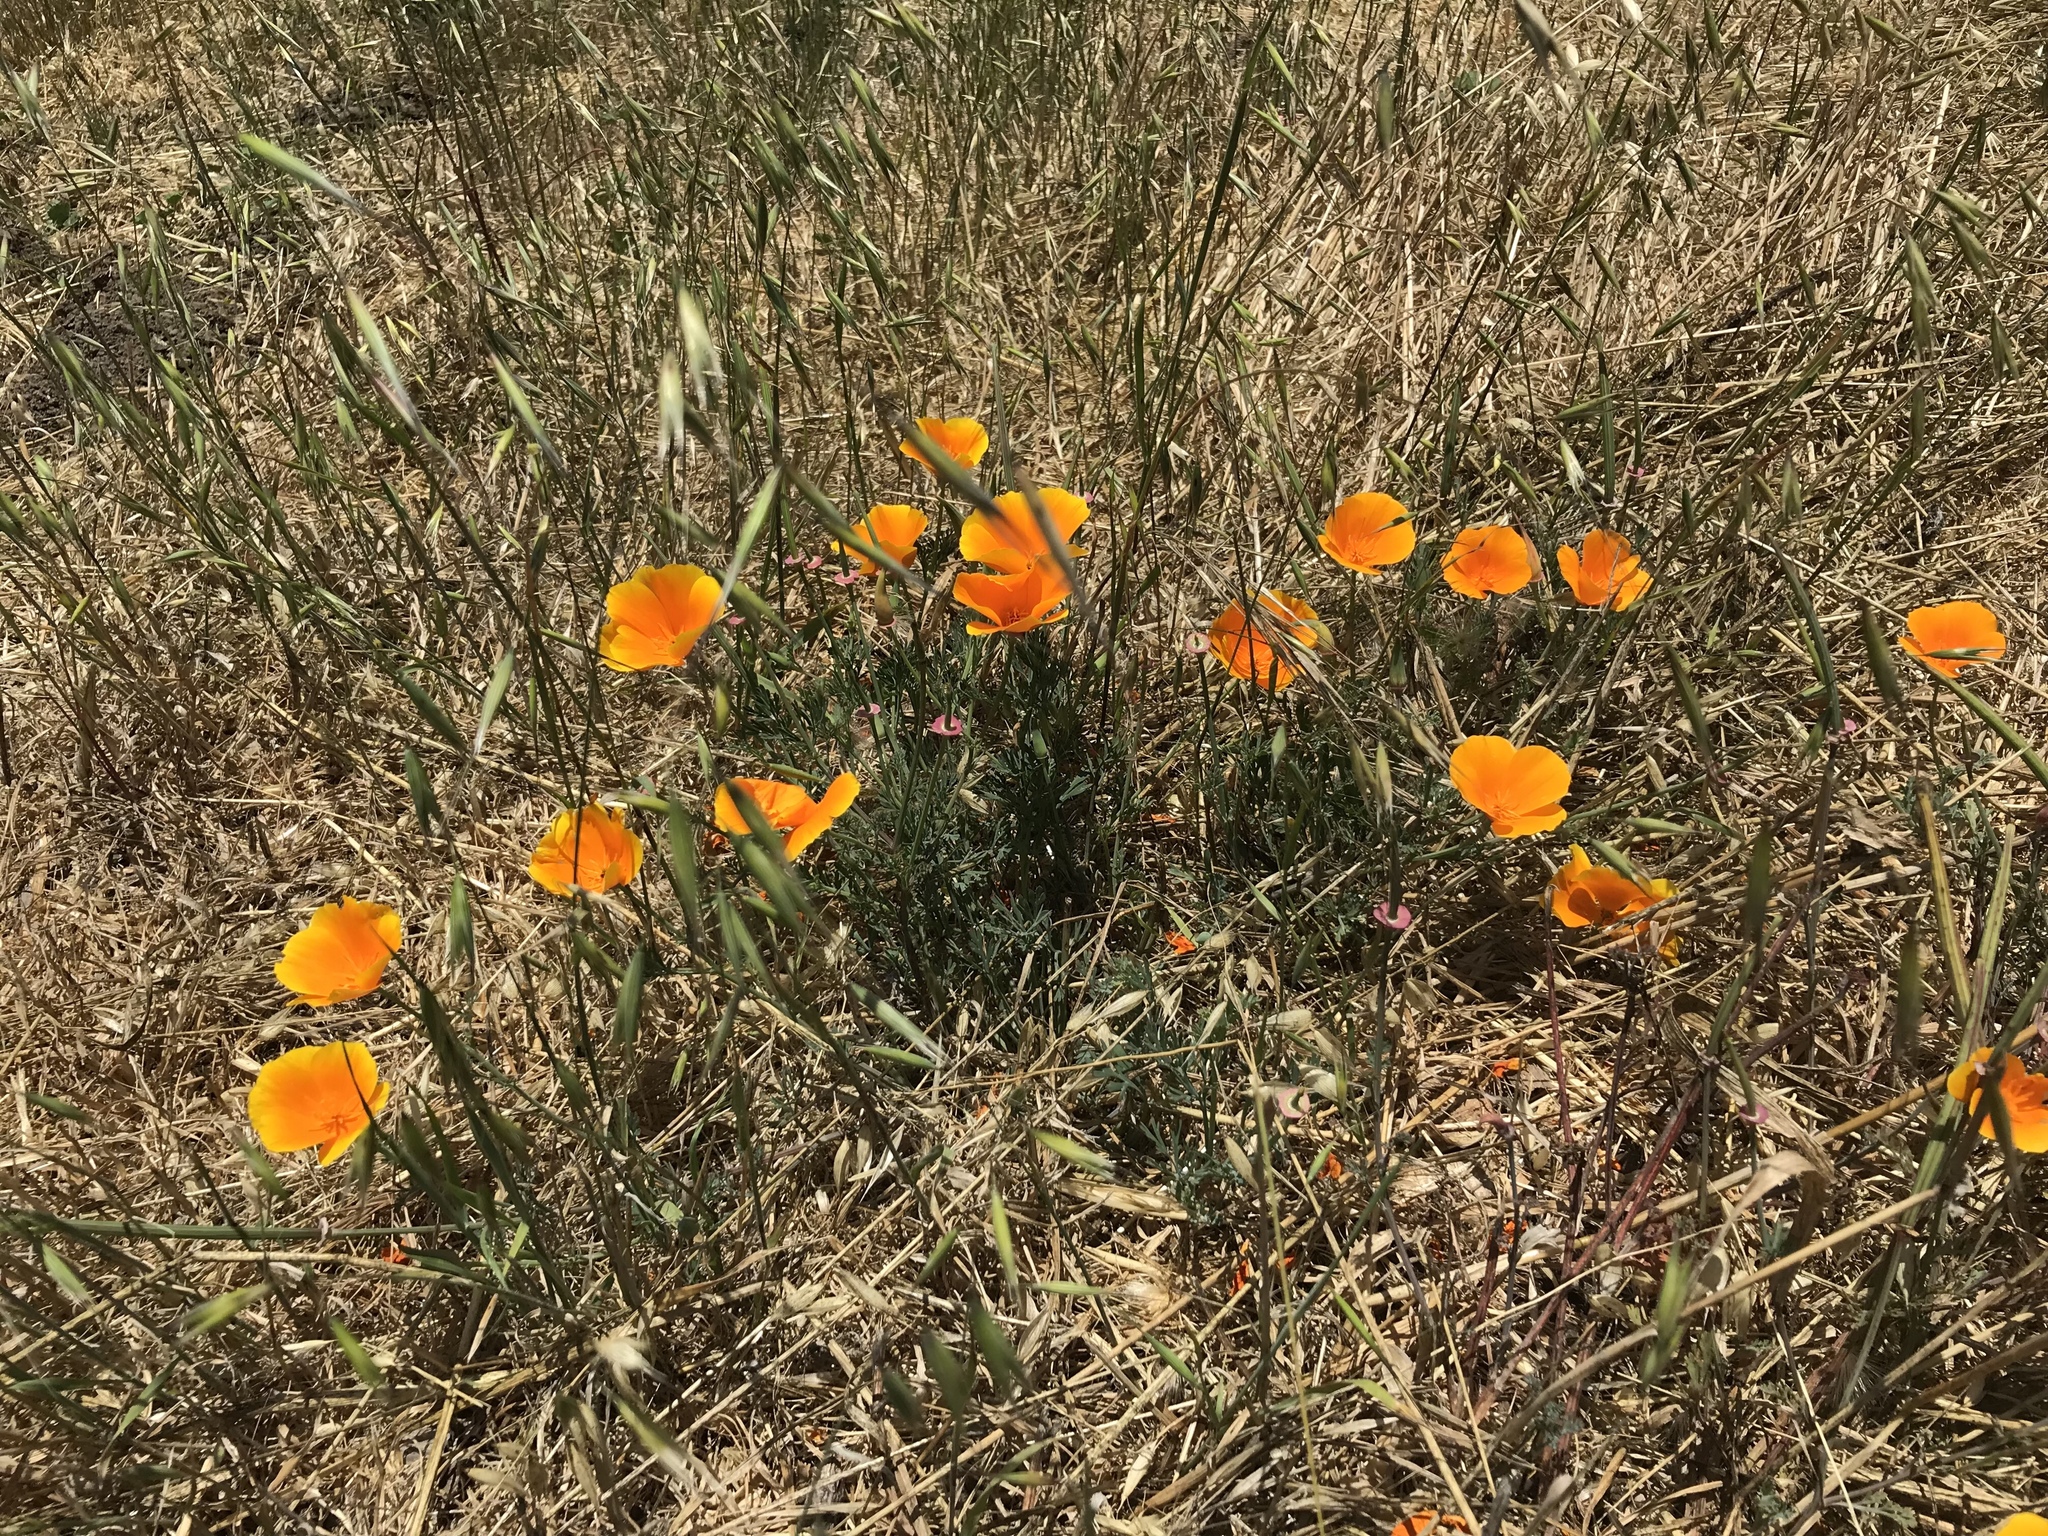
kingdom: Plantae
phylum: Tracheophyta
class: Magnoliopsida
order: Ranunculales
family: Papaveraceae
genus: Eschscholzia
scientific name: Eschscholzia californica
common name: California poppy
